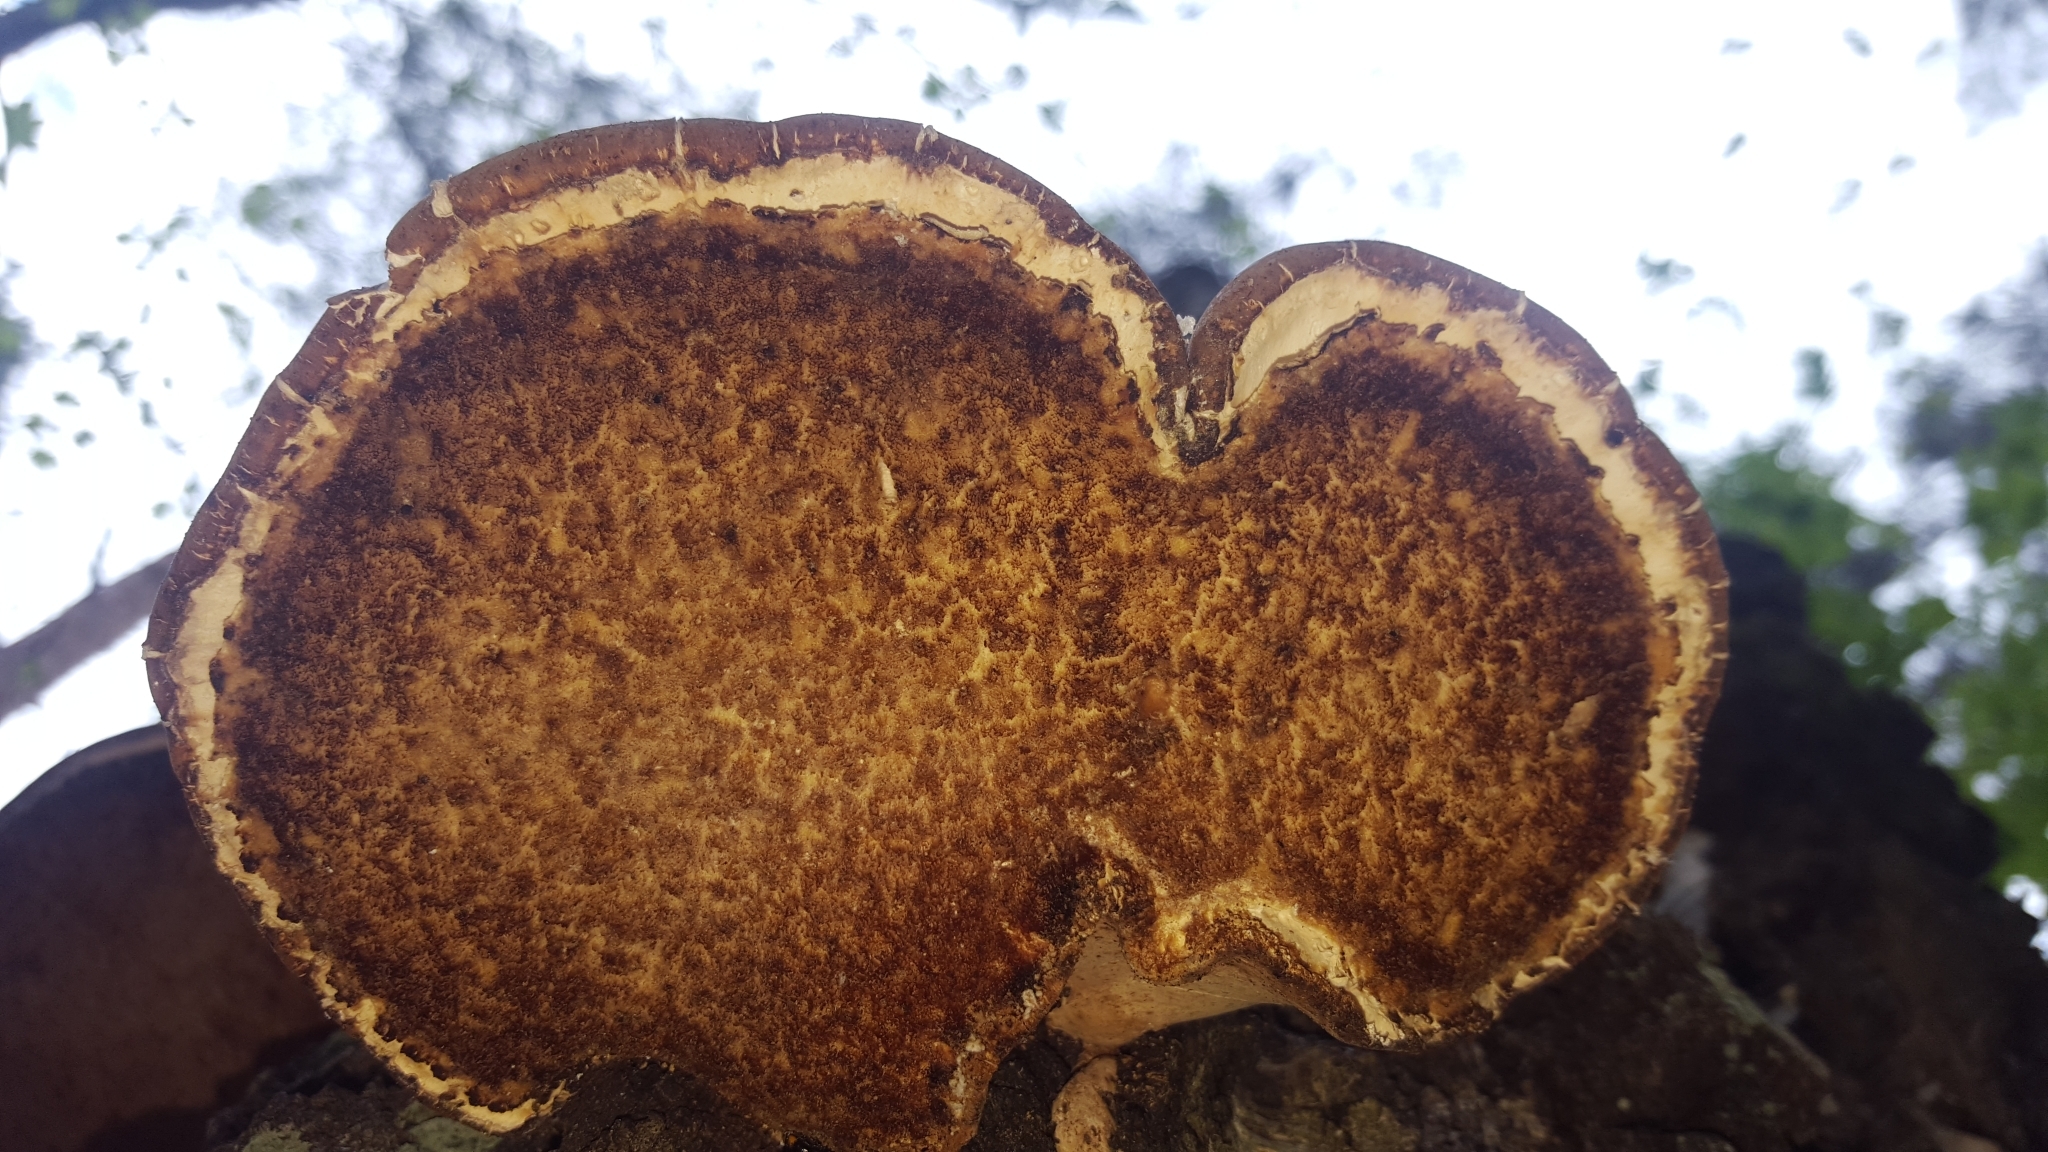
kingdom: Fungi
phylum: Basidiomycota
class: Agaricomycetes
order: Polyporales
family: Fomitopsidaceae
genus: Fomitopsis
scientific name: Fomitopsis betulina
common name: Birch polypore
